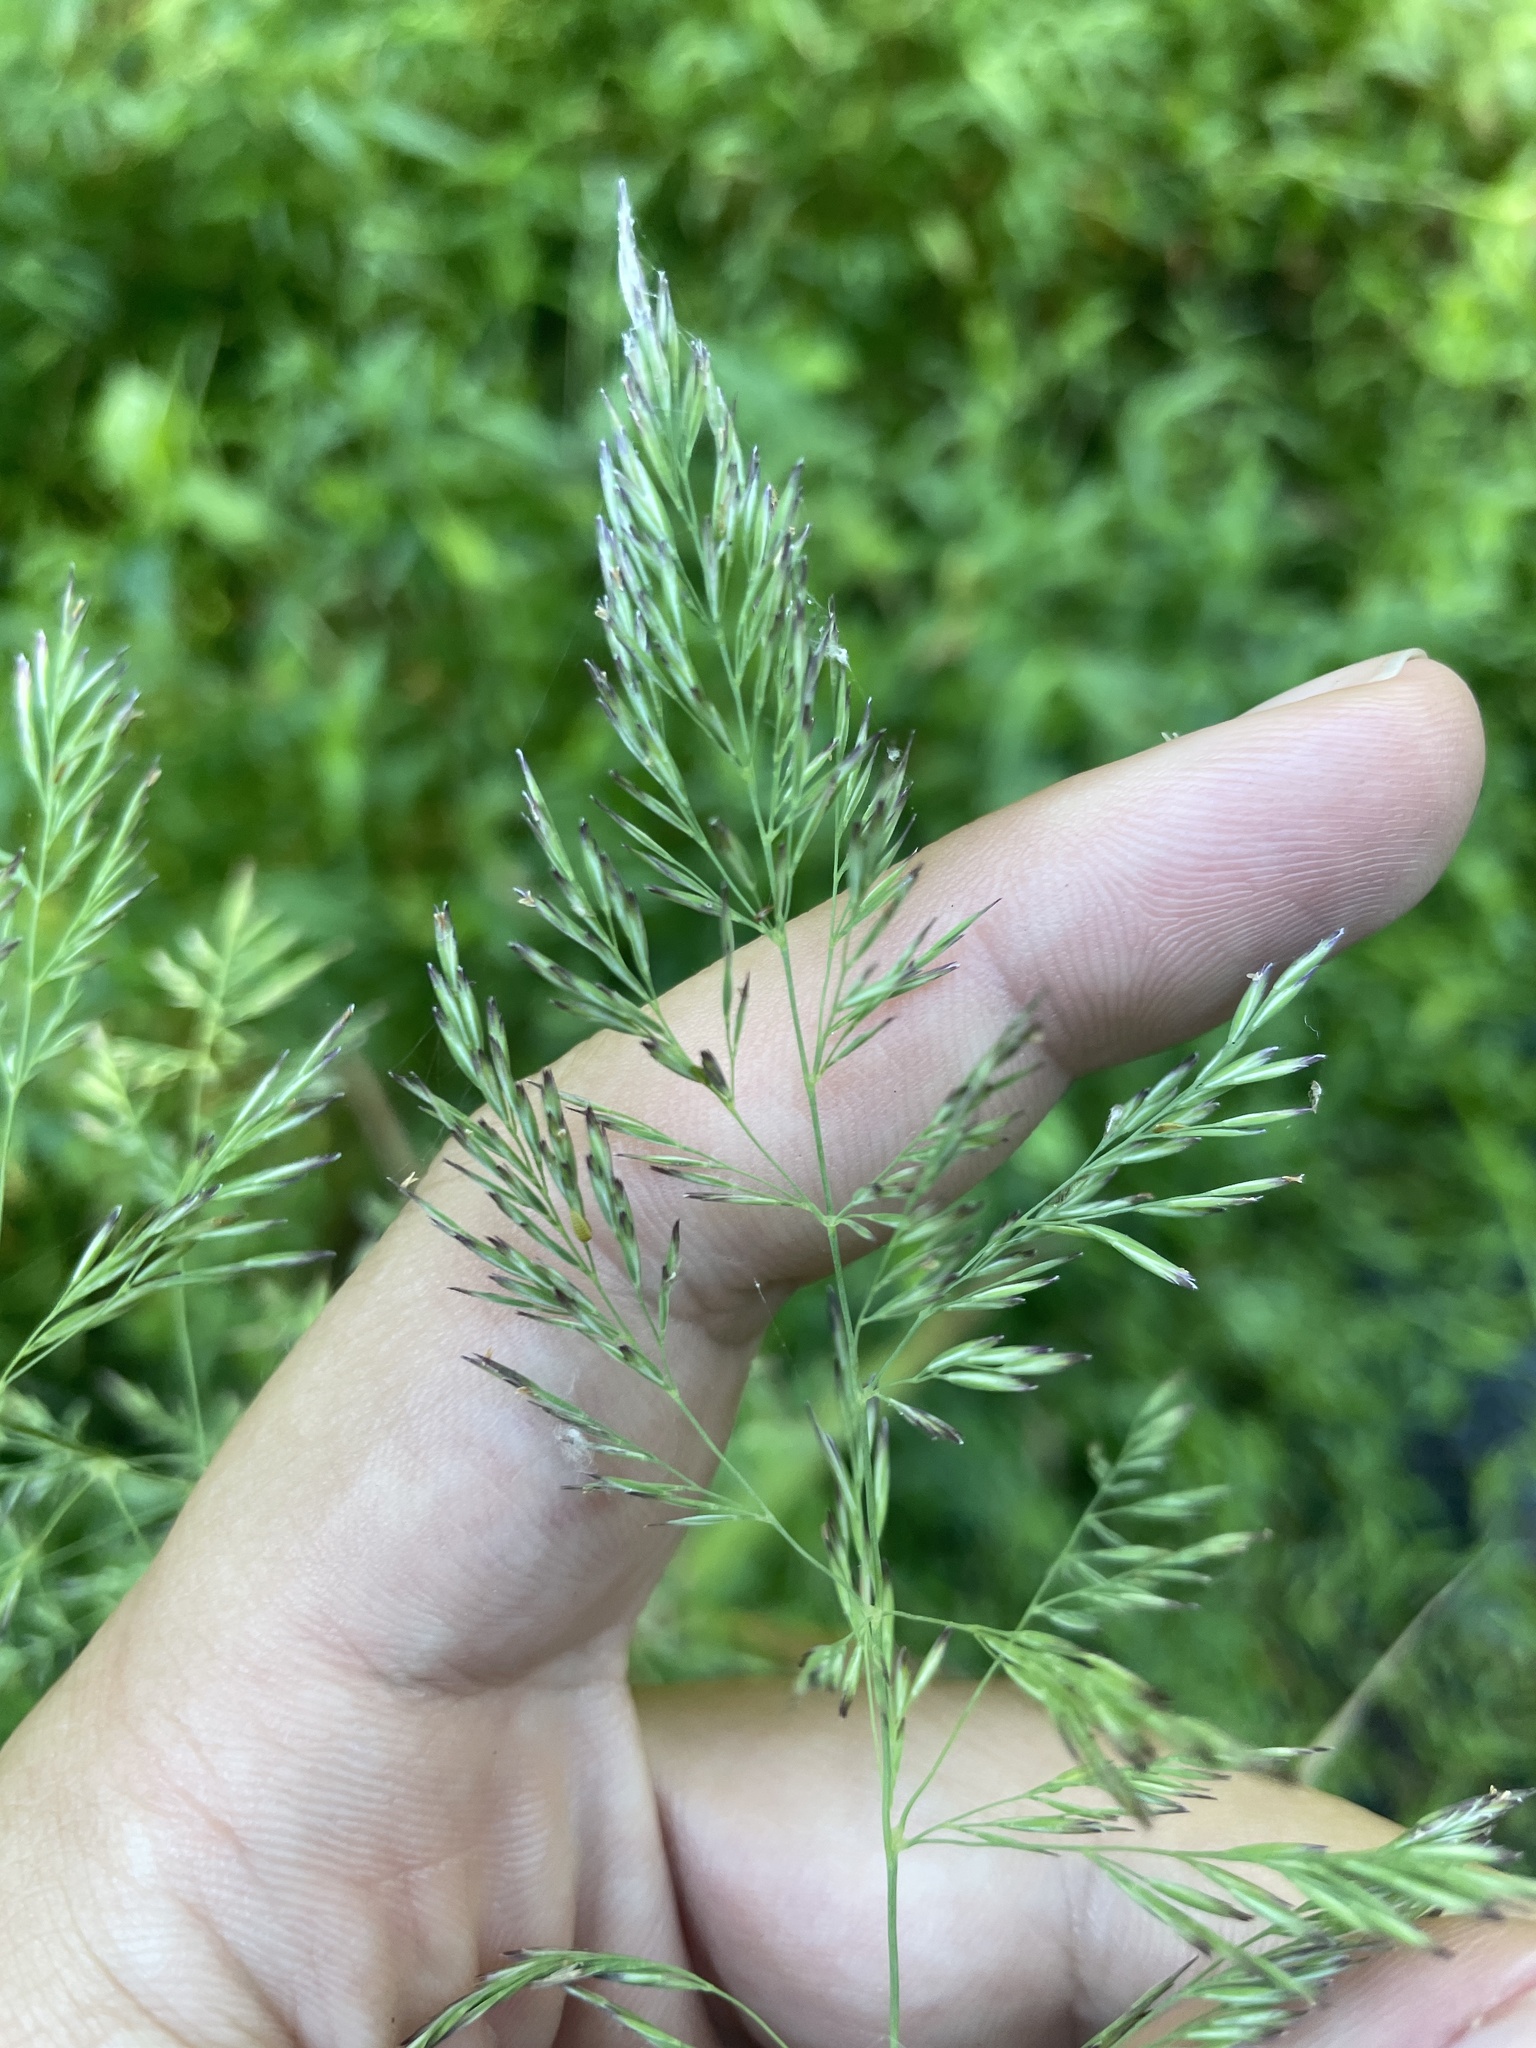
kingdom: Plantae
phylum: Tracheophyta
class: Liliopsida
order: Poales
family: Poaceae
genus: Cinna
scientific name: Cinna arundinacea
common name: Stout woodreed
